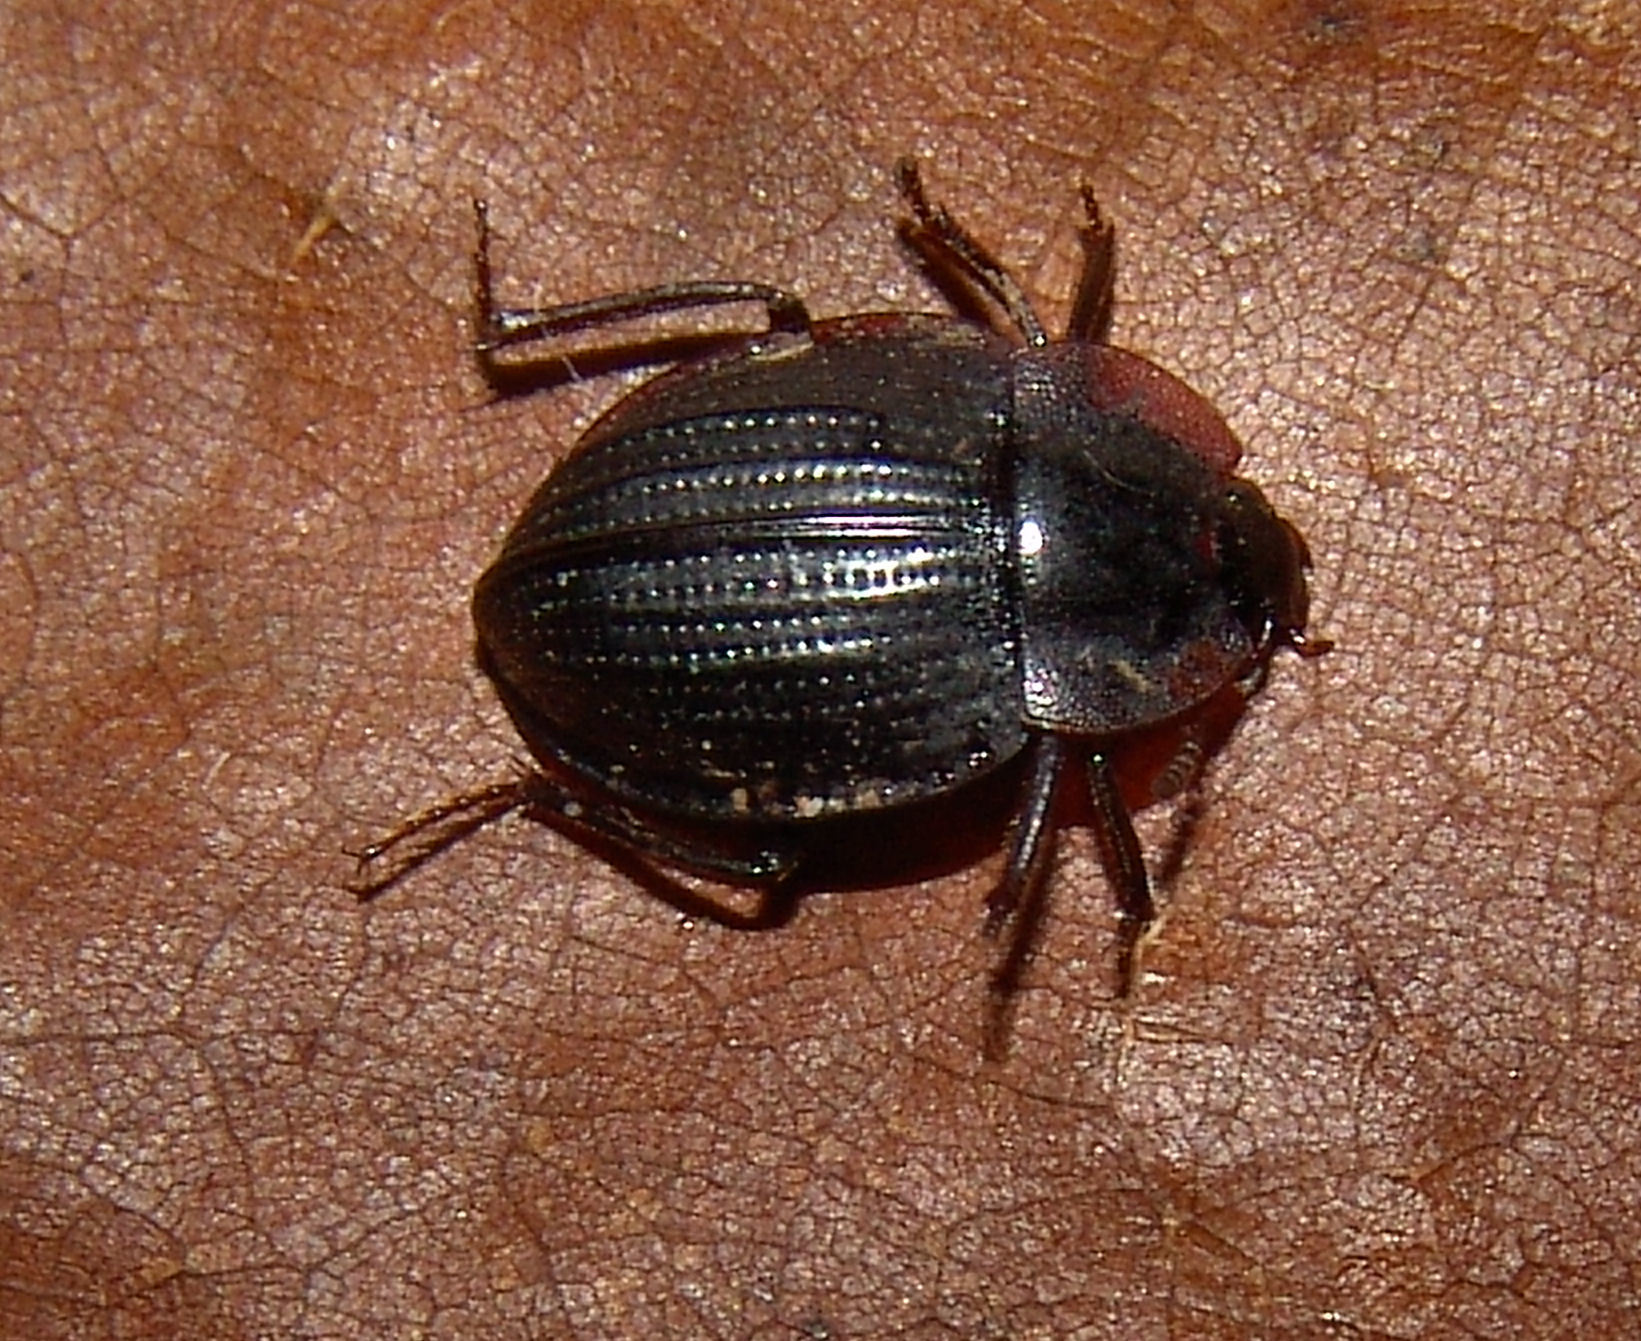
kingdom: Animalia
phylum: Arthropoda
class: Insecta
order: Coleoptera
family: Agyrtidae
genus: Necrophilus
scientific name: Necrophilus pettitii
